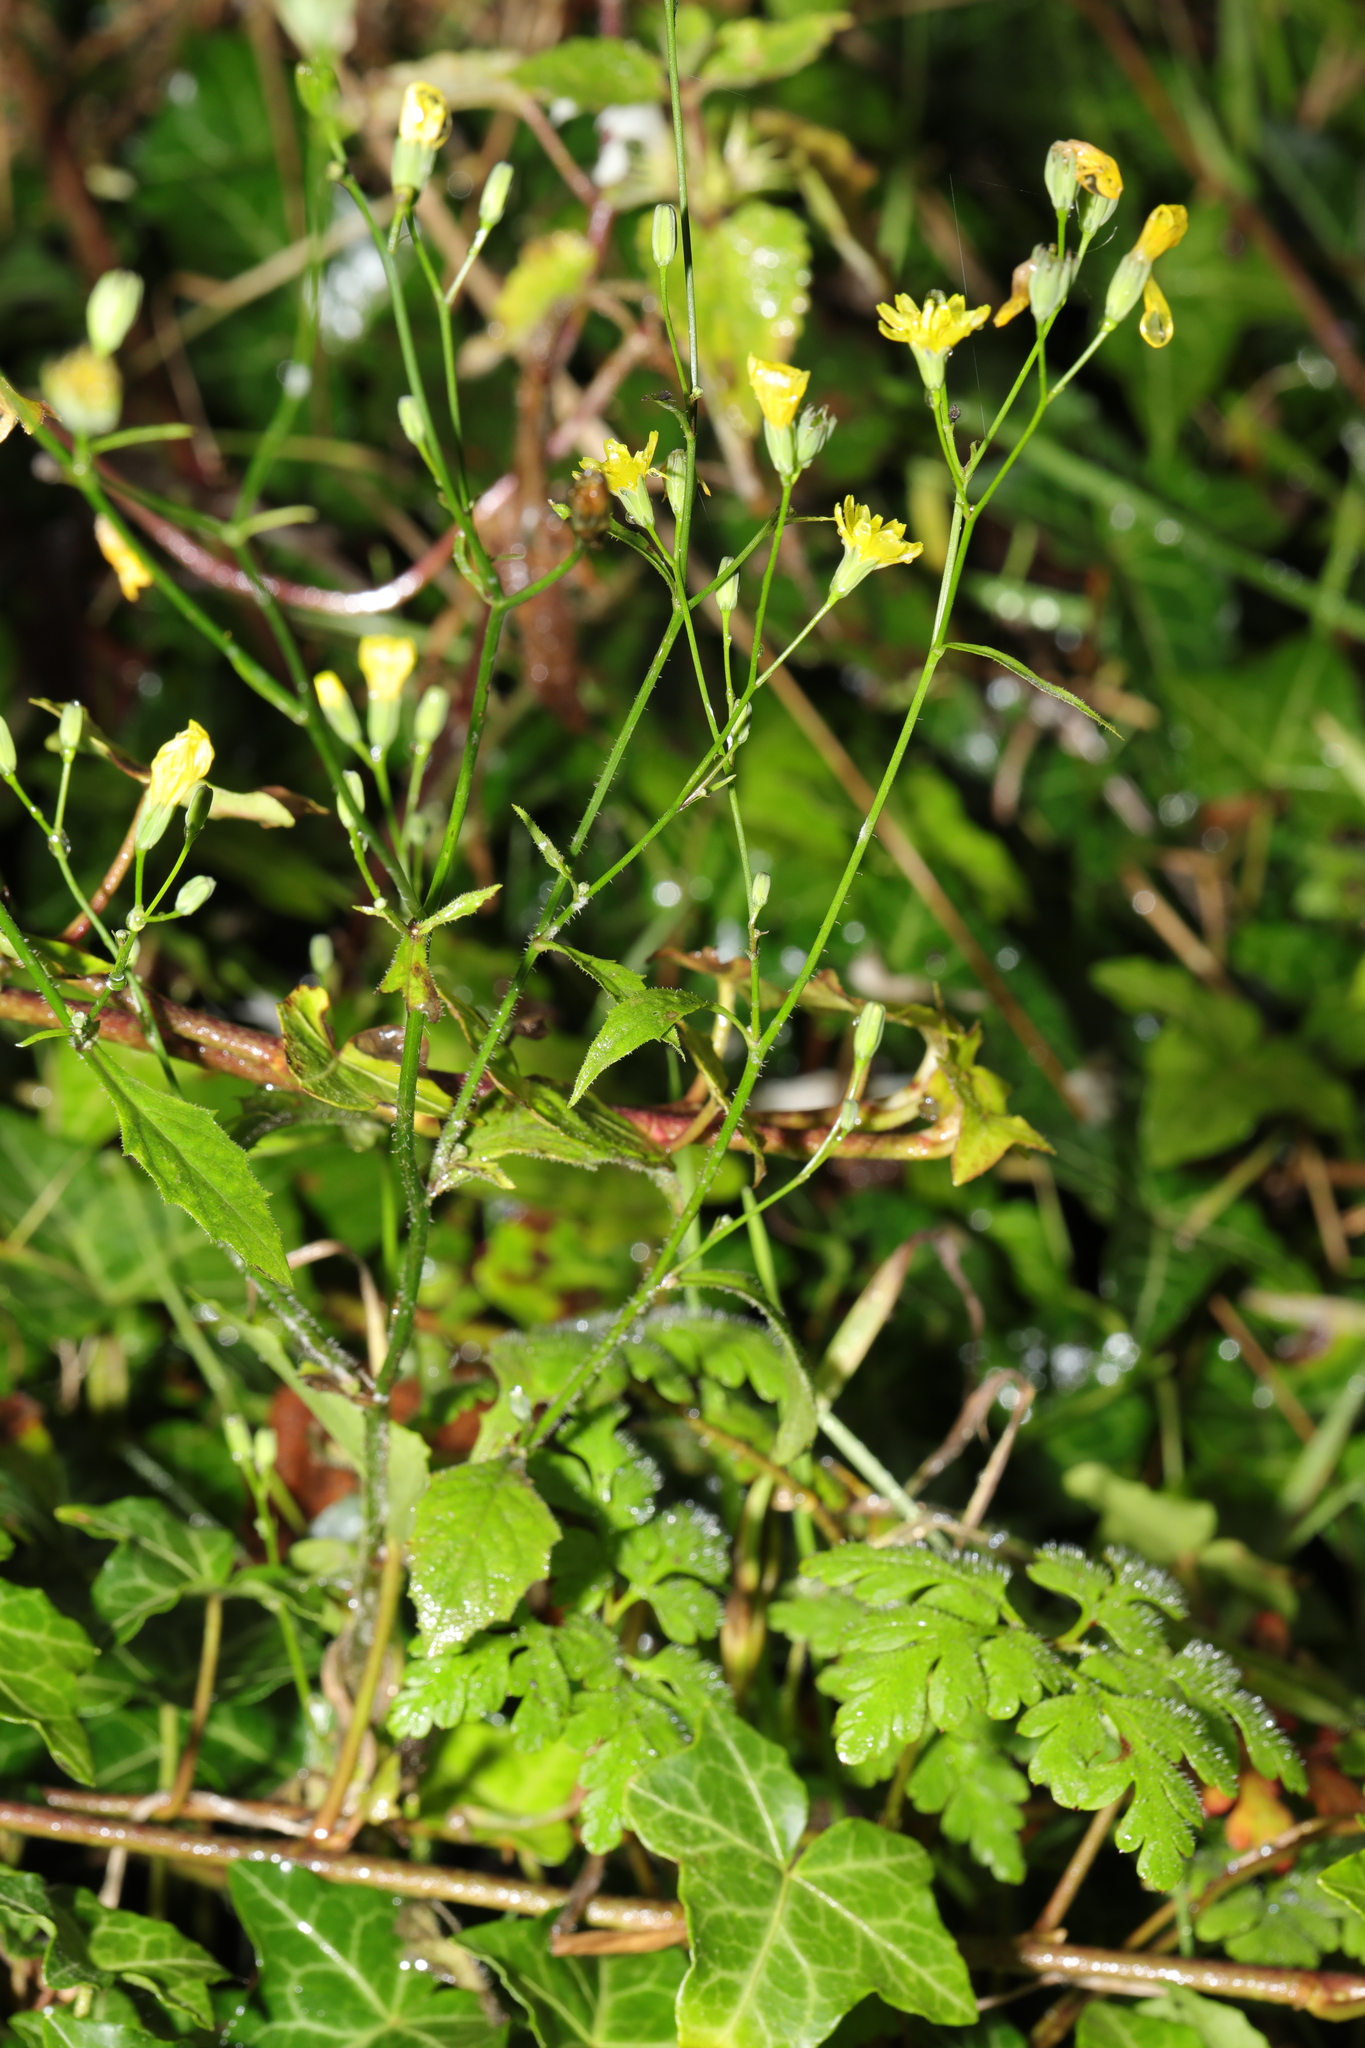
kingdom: Plantae
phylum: Tracheophyta
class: Magnoliopsida
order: Asterales
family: Asteraceae
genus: Lapsana
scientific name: Lapsana communis
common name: Nipplewort
